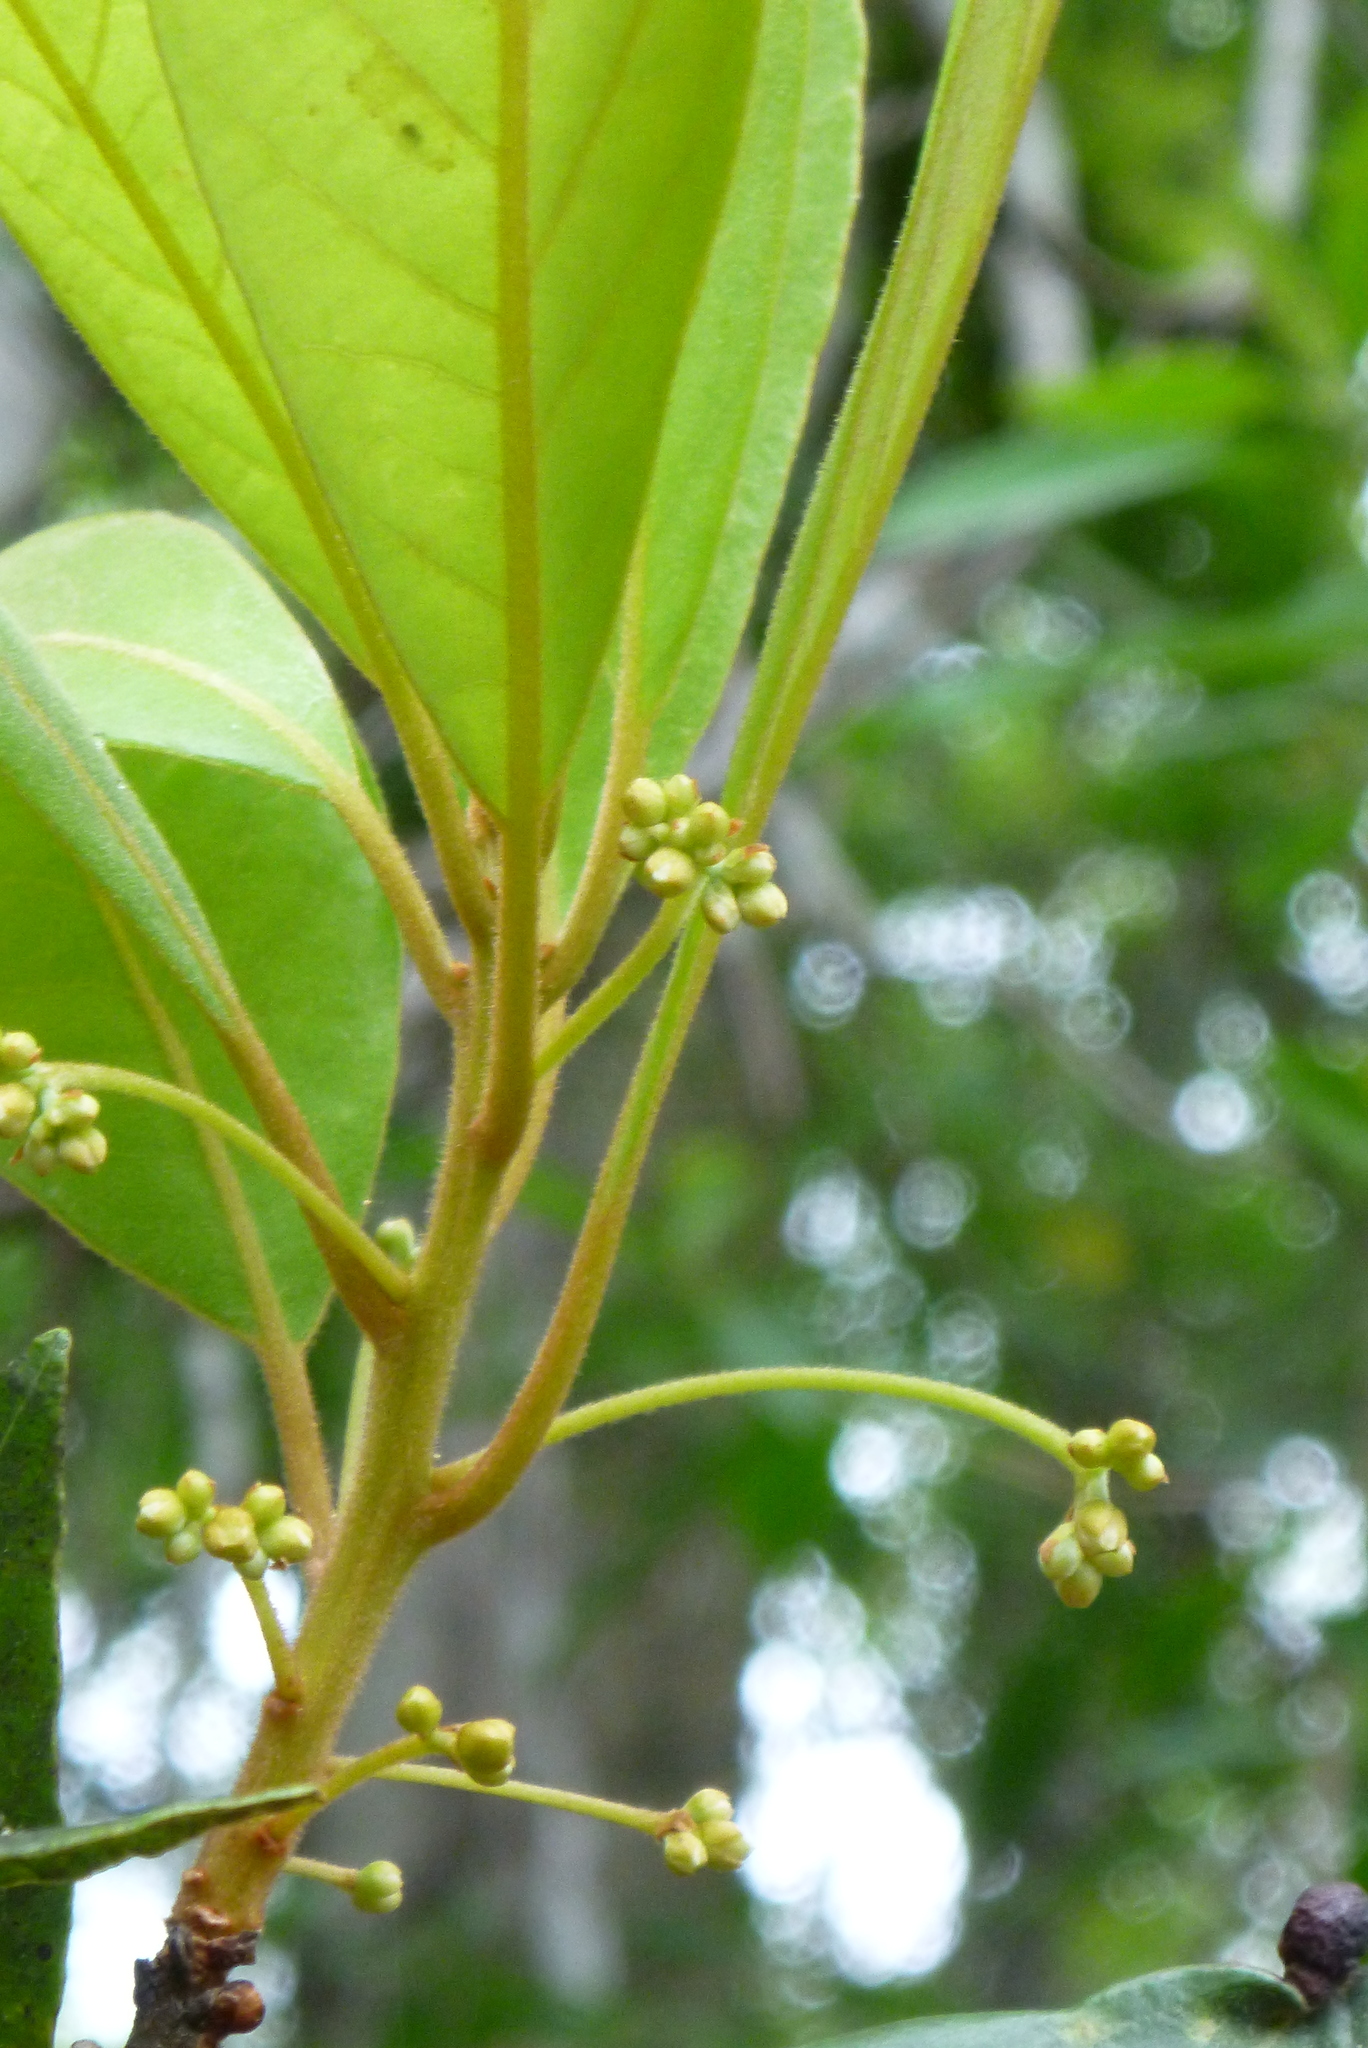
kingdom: Plantae
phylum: Tracheophyta
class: Magnoliopsida
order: Laurales
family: Lauraceae
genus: Persea
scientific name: Persea palustris
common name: Swampbay
